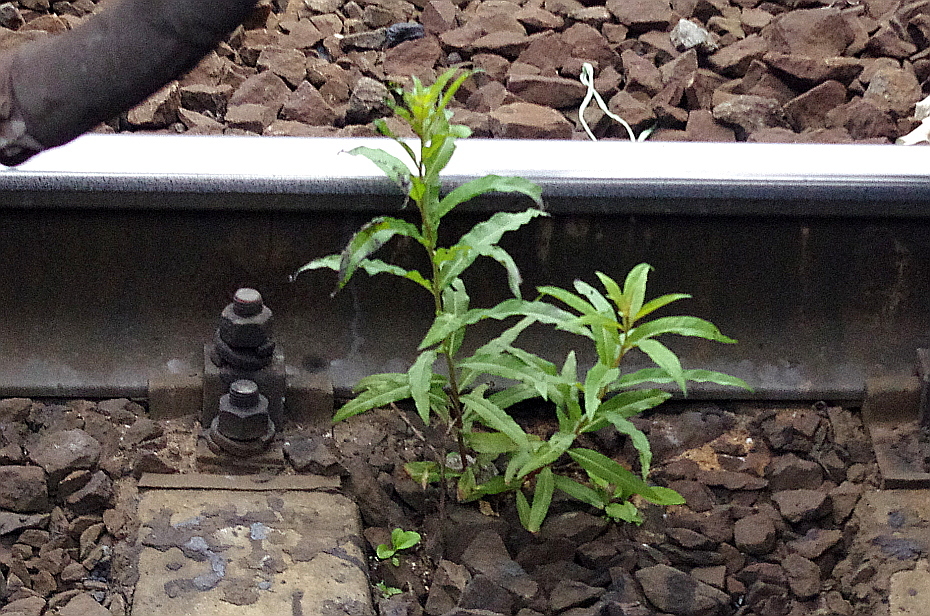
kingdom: Plantae
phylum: Tracheophyta
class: Magnoliopsida
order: Myrtales
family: Onagraceae
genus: Chamaenerion
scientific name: Chamaenerion angustifolium
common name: Fireweed
